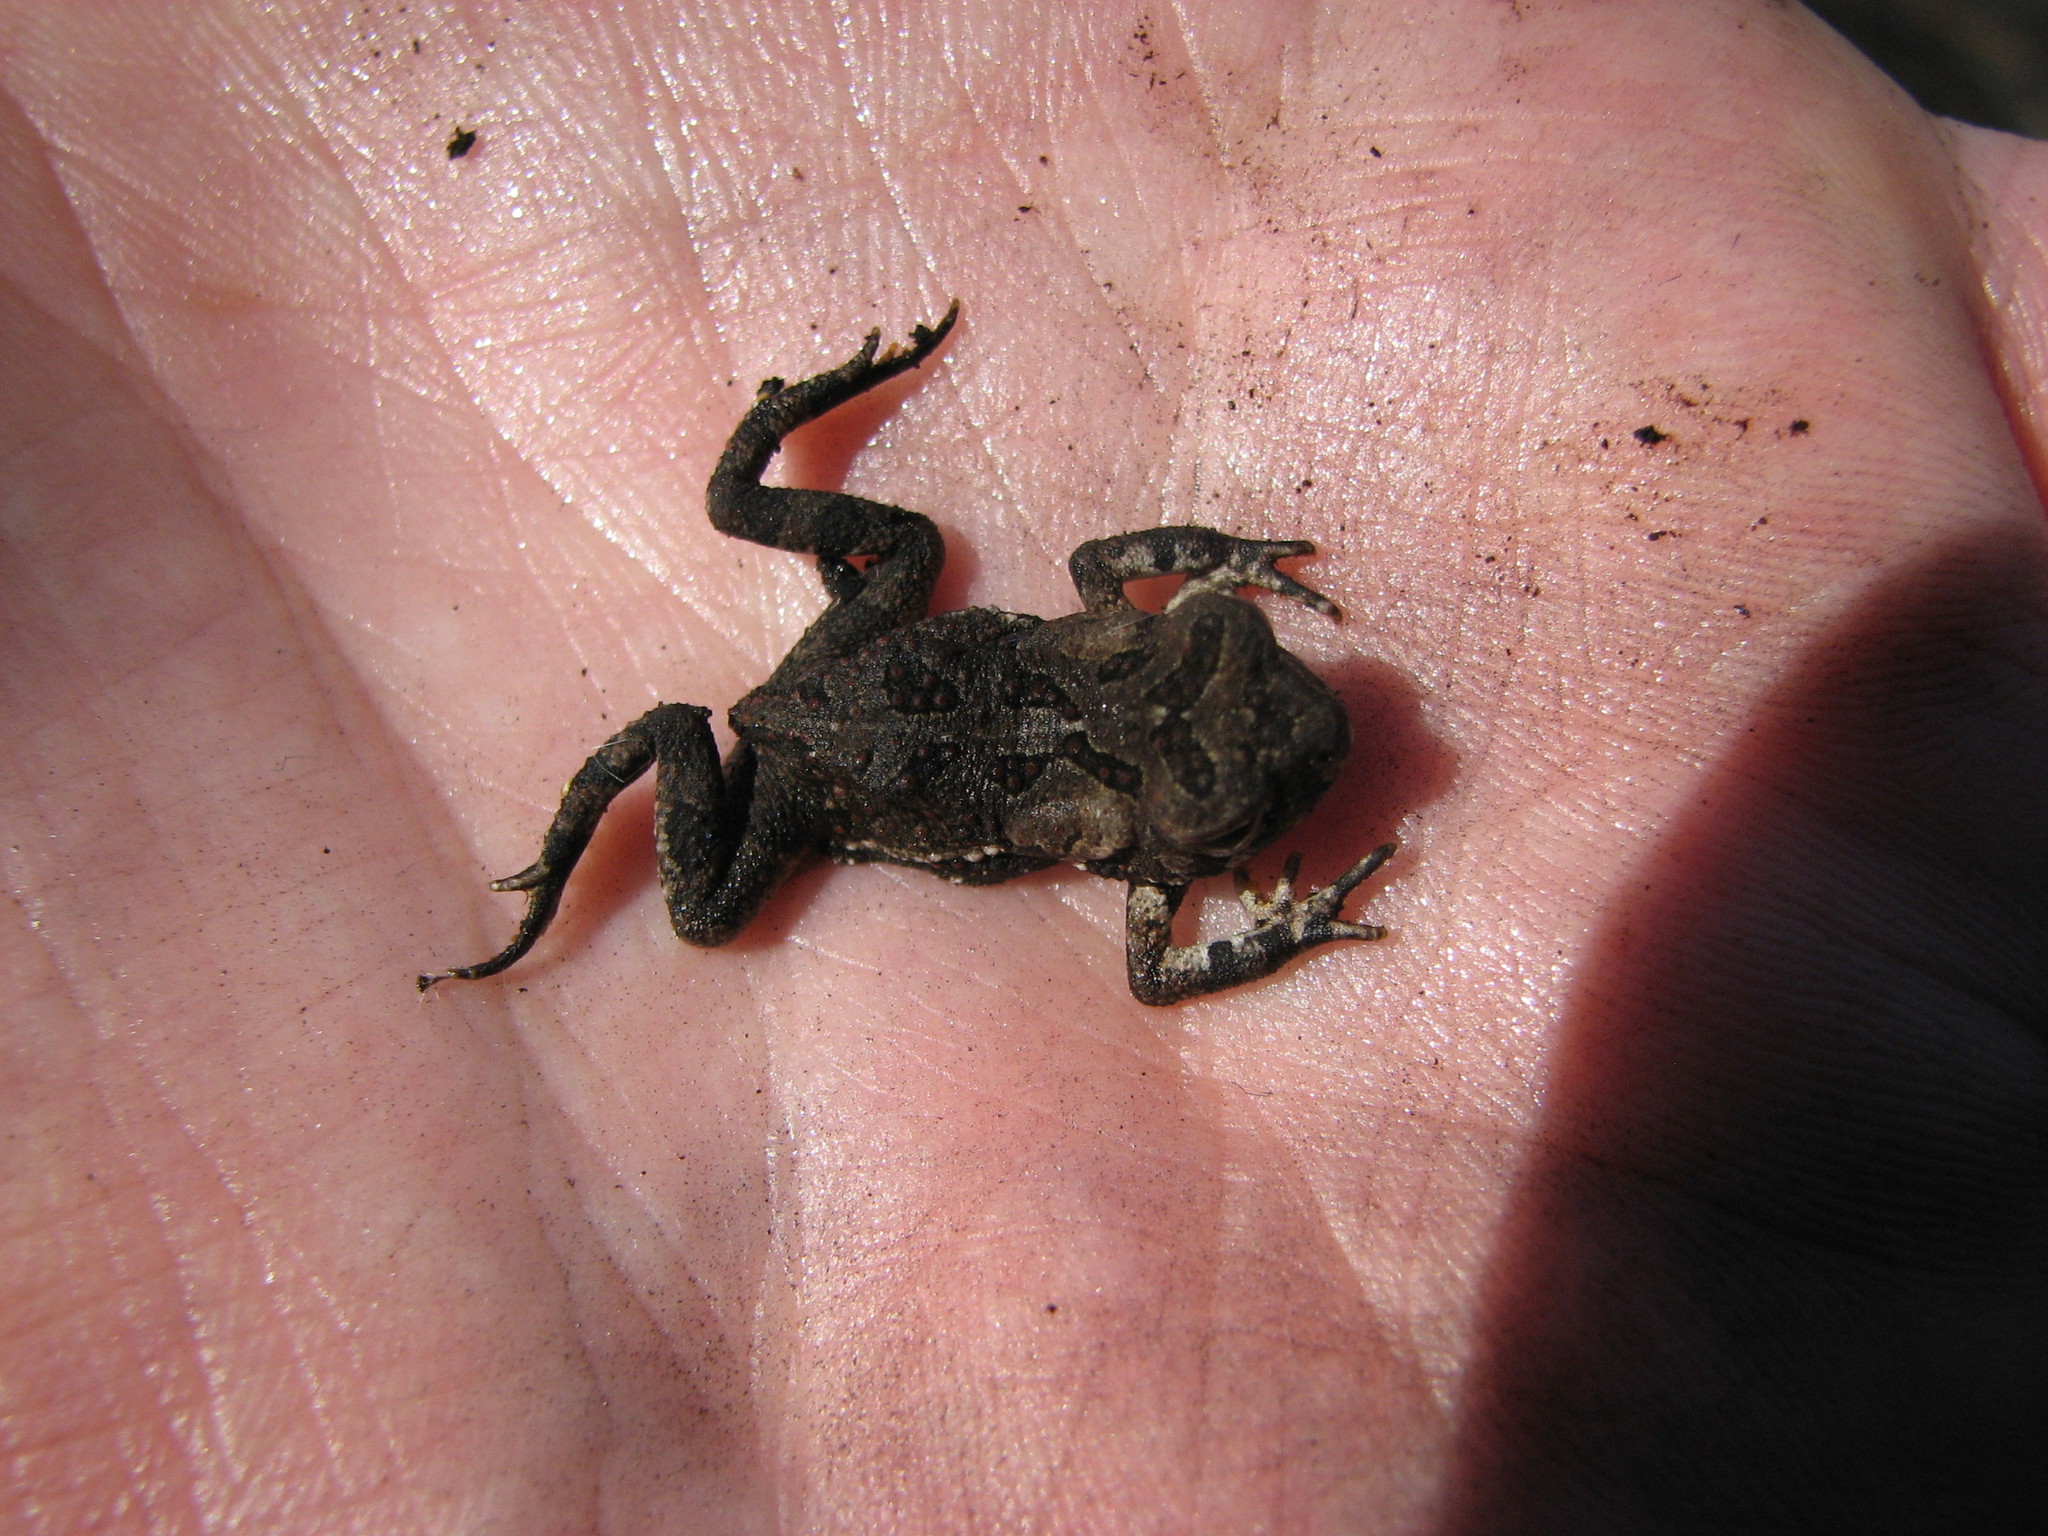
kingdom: Animalia
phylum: Chordata
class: Amphibia
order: Anura
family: Bufonidae
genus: Anaxyrus
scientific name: Anaxyrus fowleri
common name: Fowler's toad
